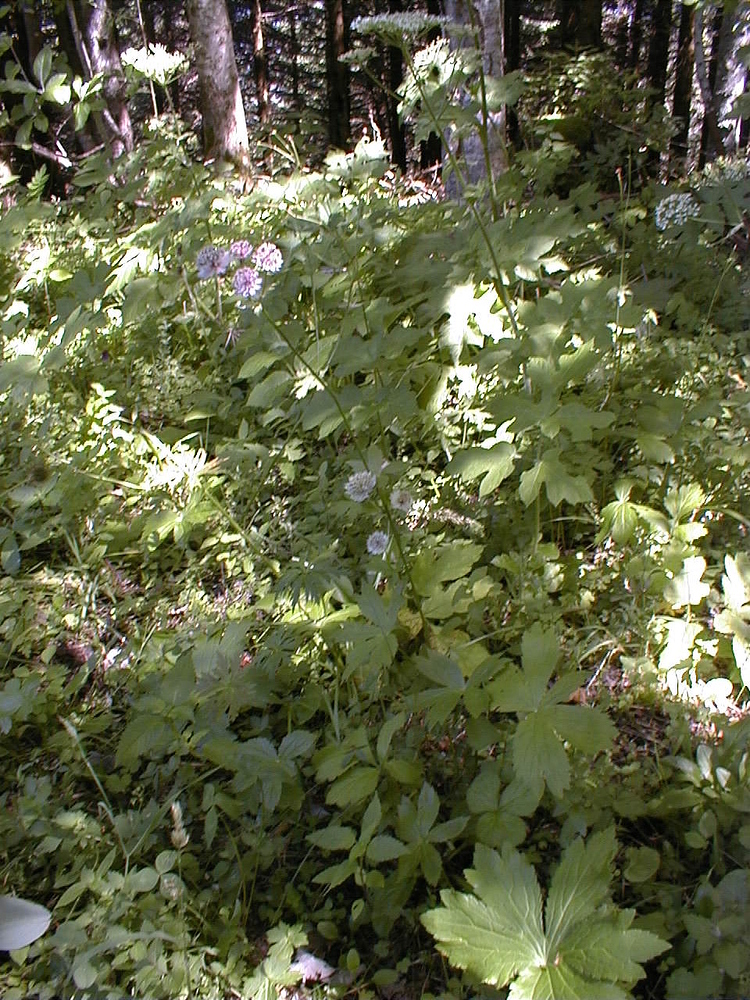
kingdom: Plantae
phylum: Tracheophyta
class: Magnoliopsida
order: Apiales
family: Apiaceae
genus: Astrantia
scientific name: Astrantia major
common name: Greater masterwort
